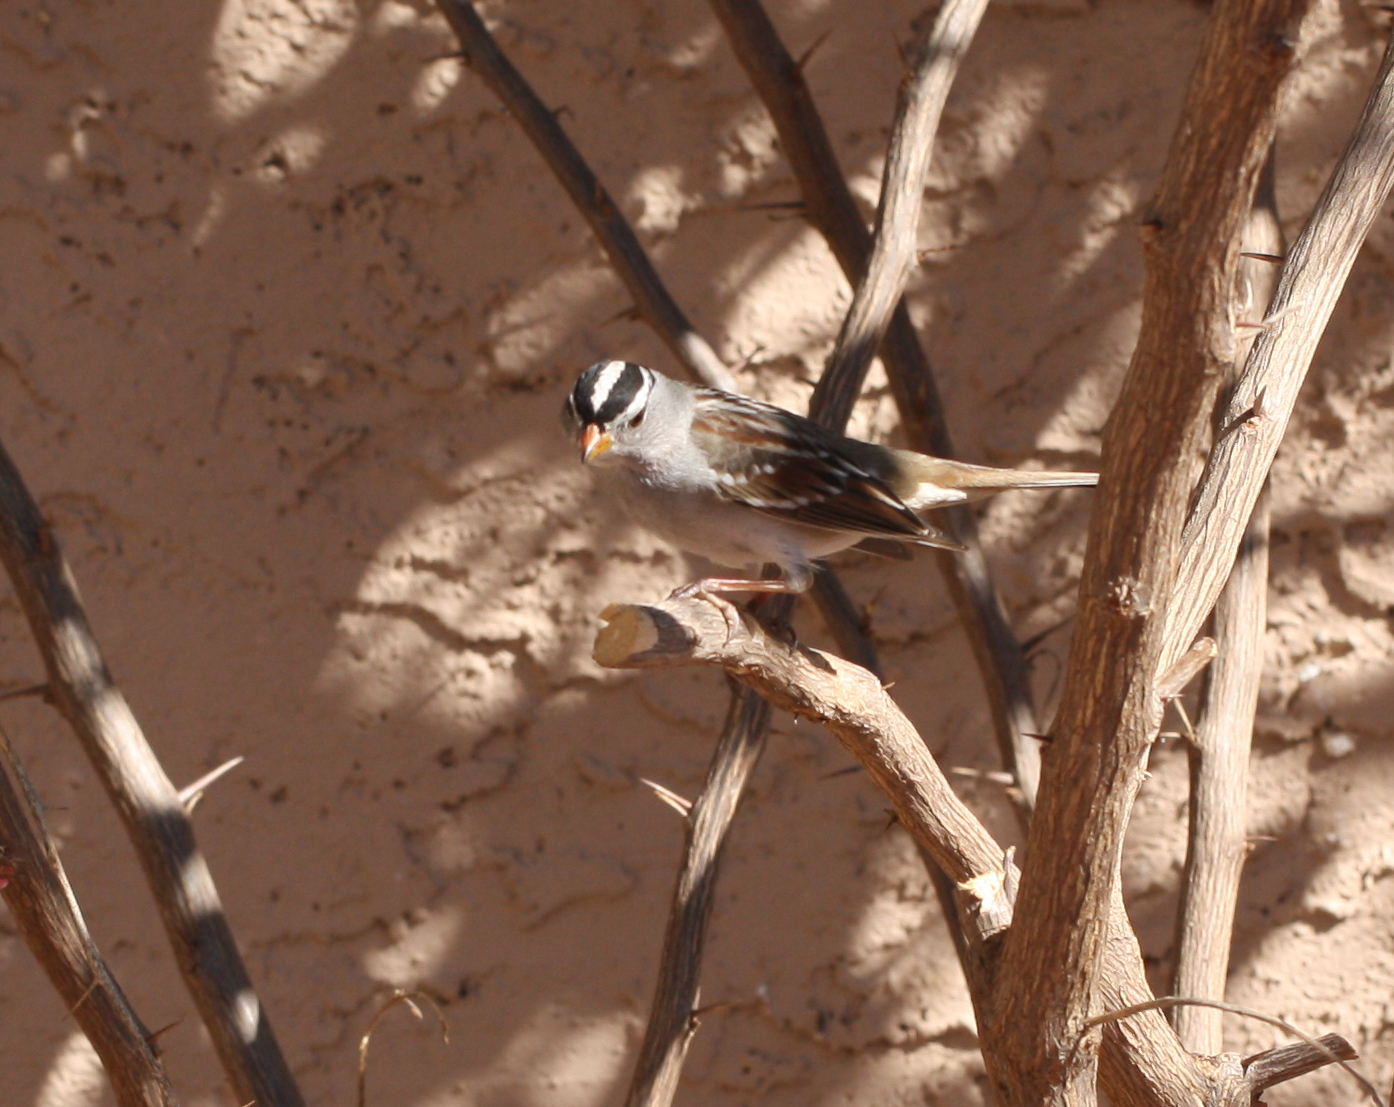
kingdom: Animalia
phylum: Chordata
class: Aves
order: Passeriformes
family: Passerellidae
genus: Zonotrichia
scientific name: Zonotrichia leucophrys
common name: White-crowned sparrow
